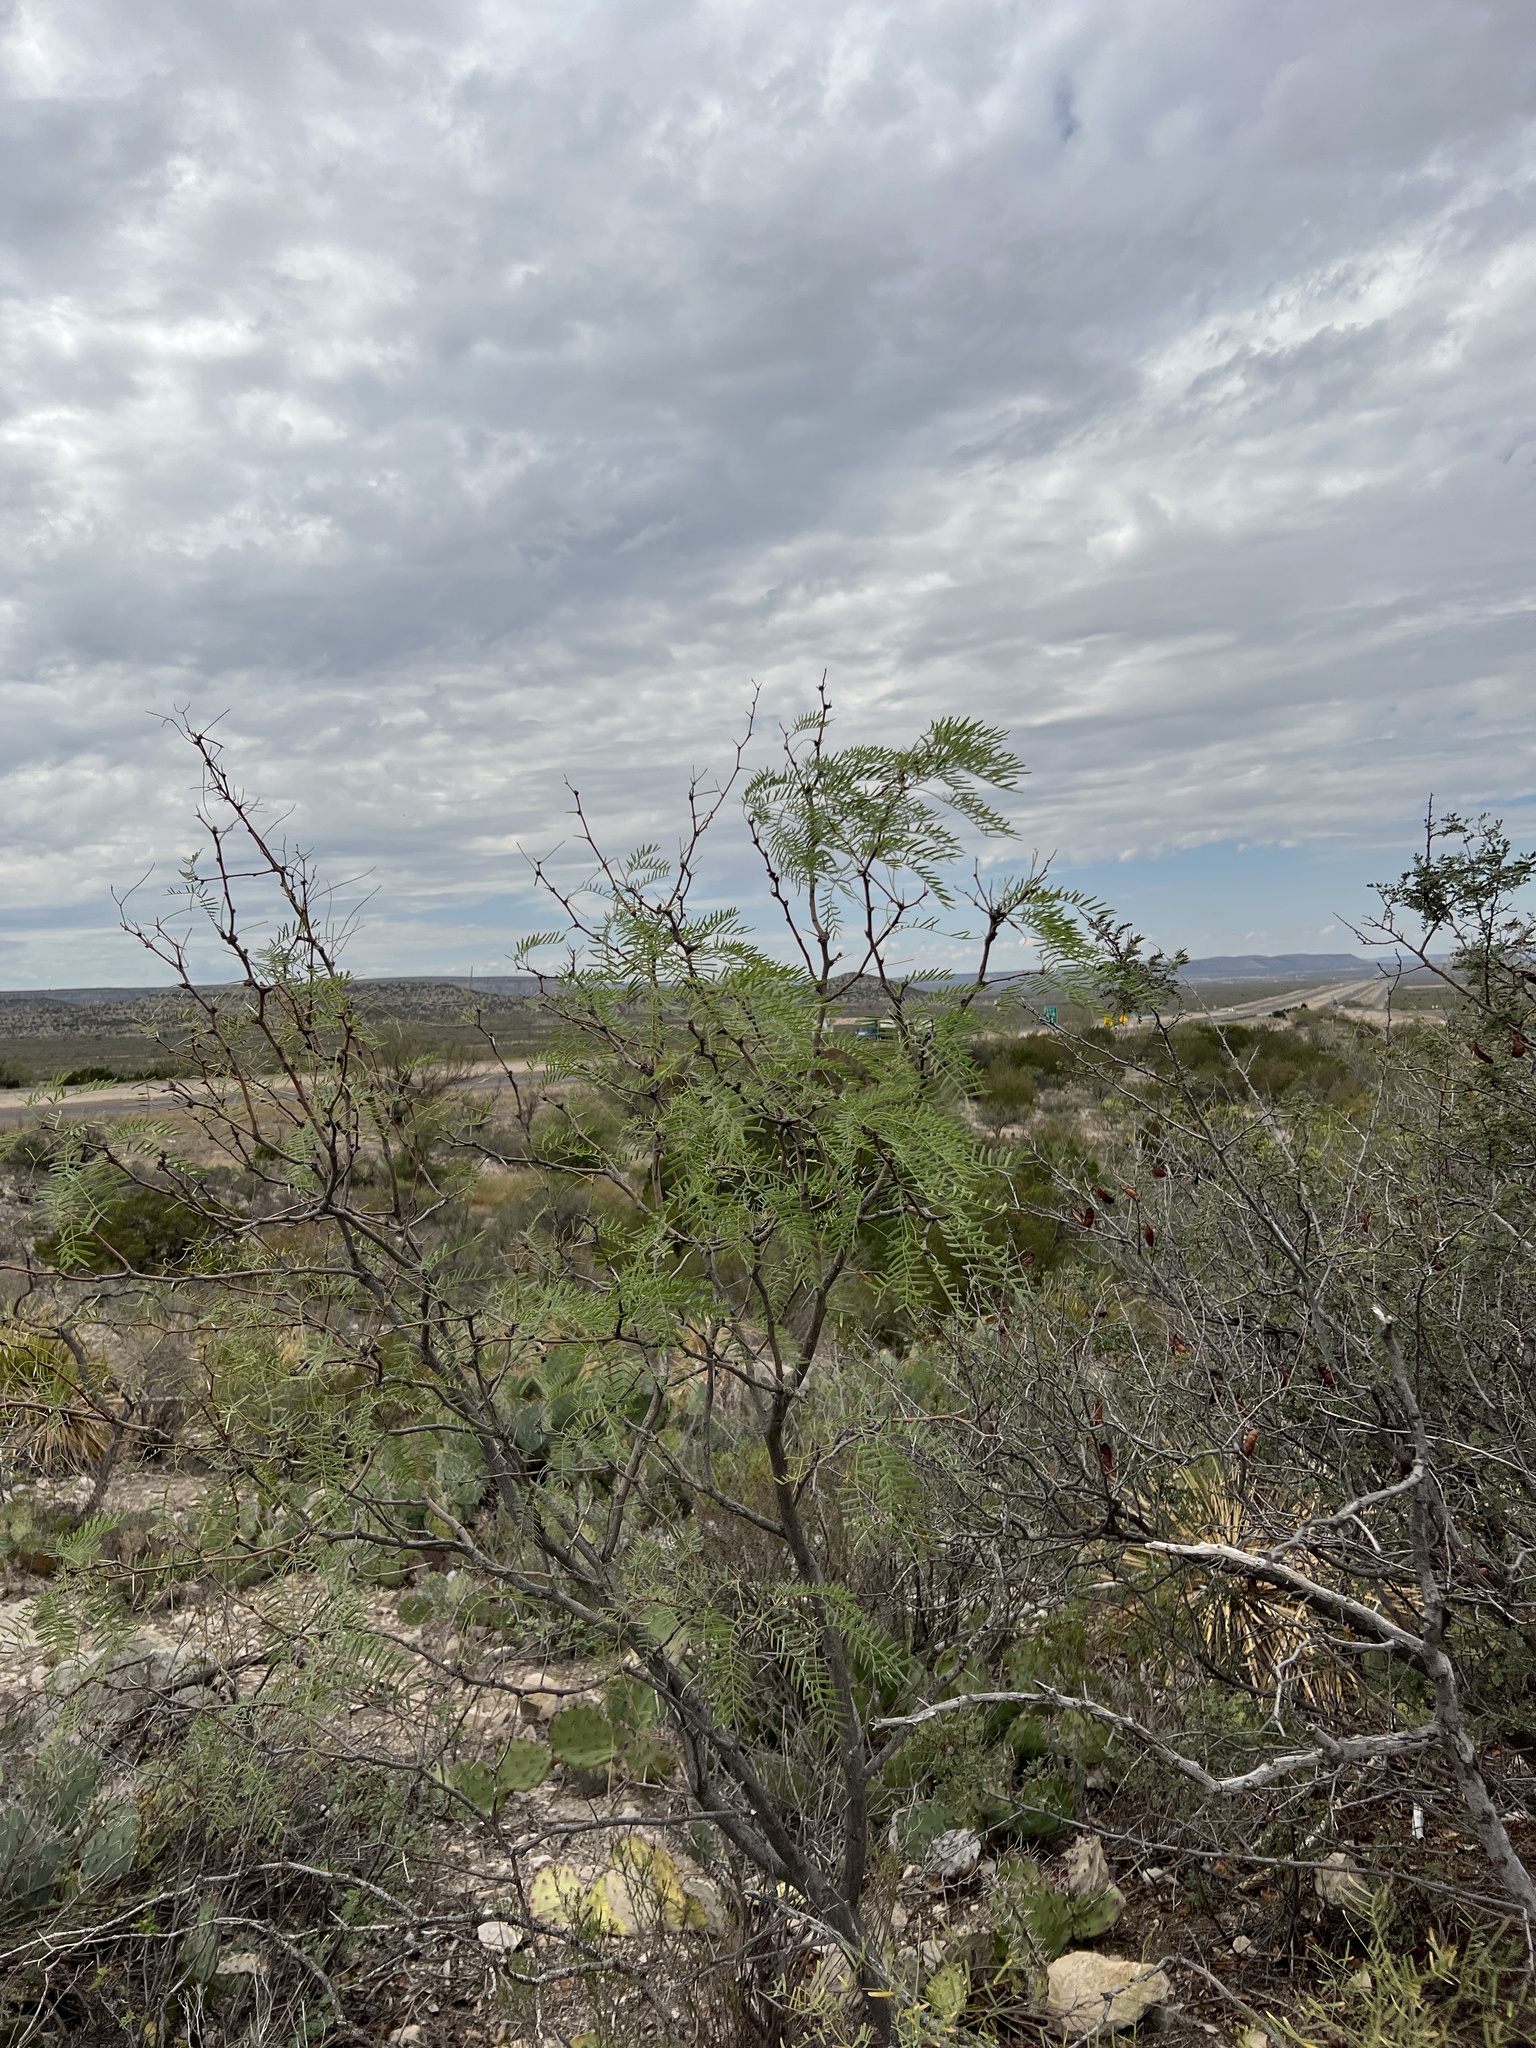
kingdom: Plantae
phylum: Tracheophyta
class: Magnoliopsida
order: Fabales
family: Fabaceae
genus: Prosopis
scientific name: Prosopis glandulosa
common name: Honey mesquite
